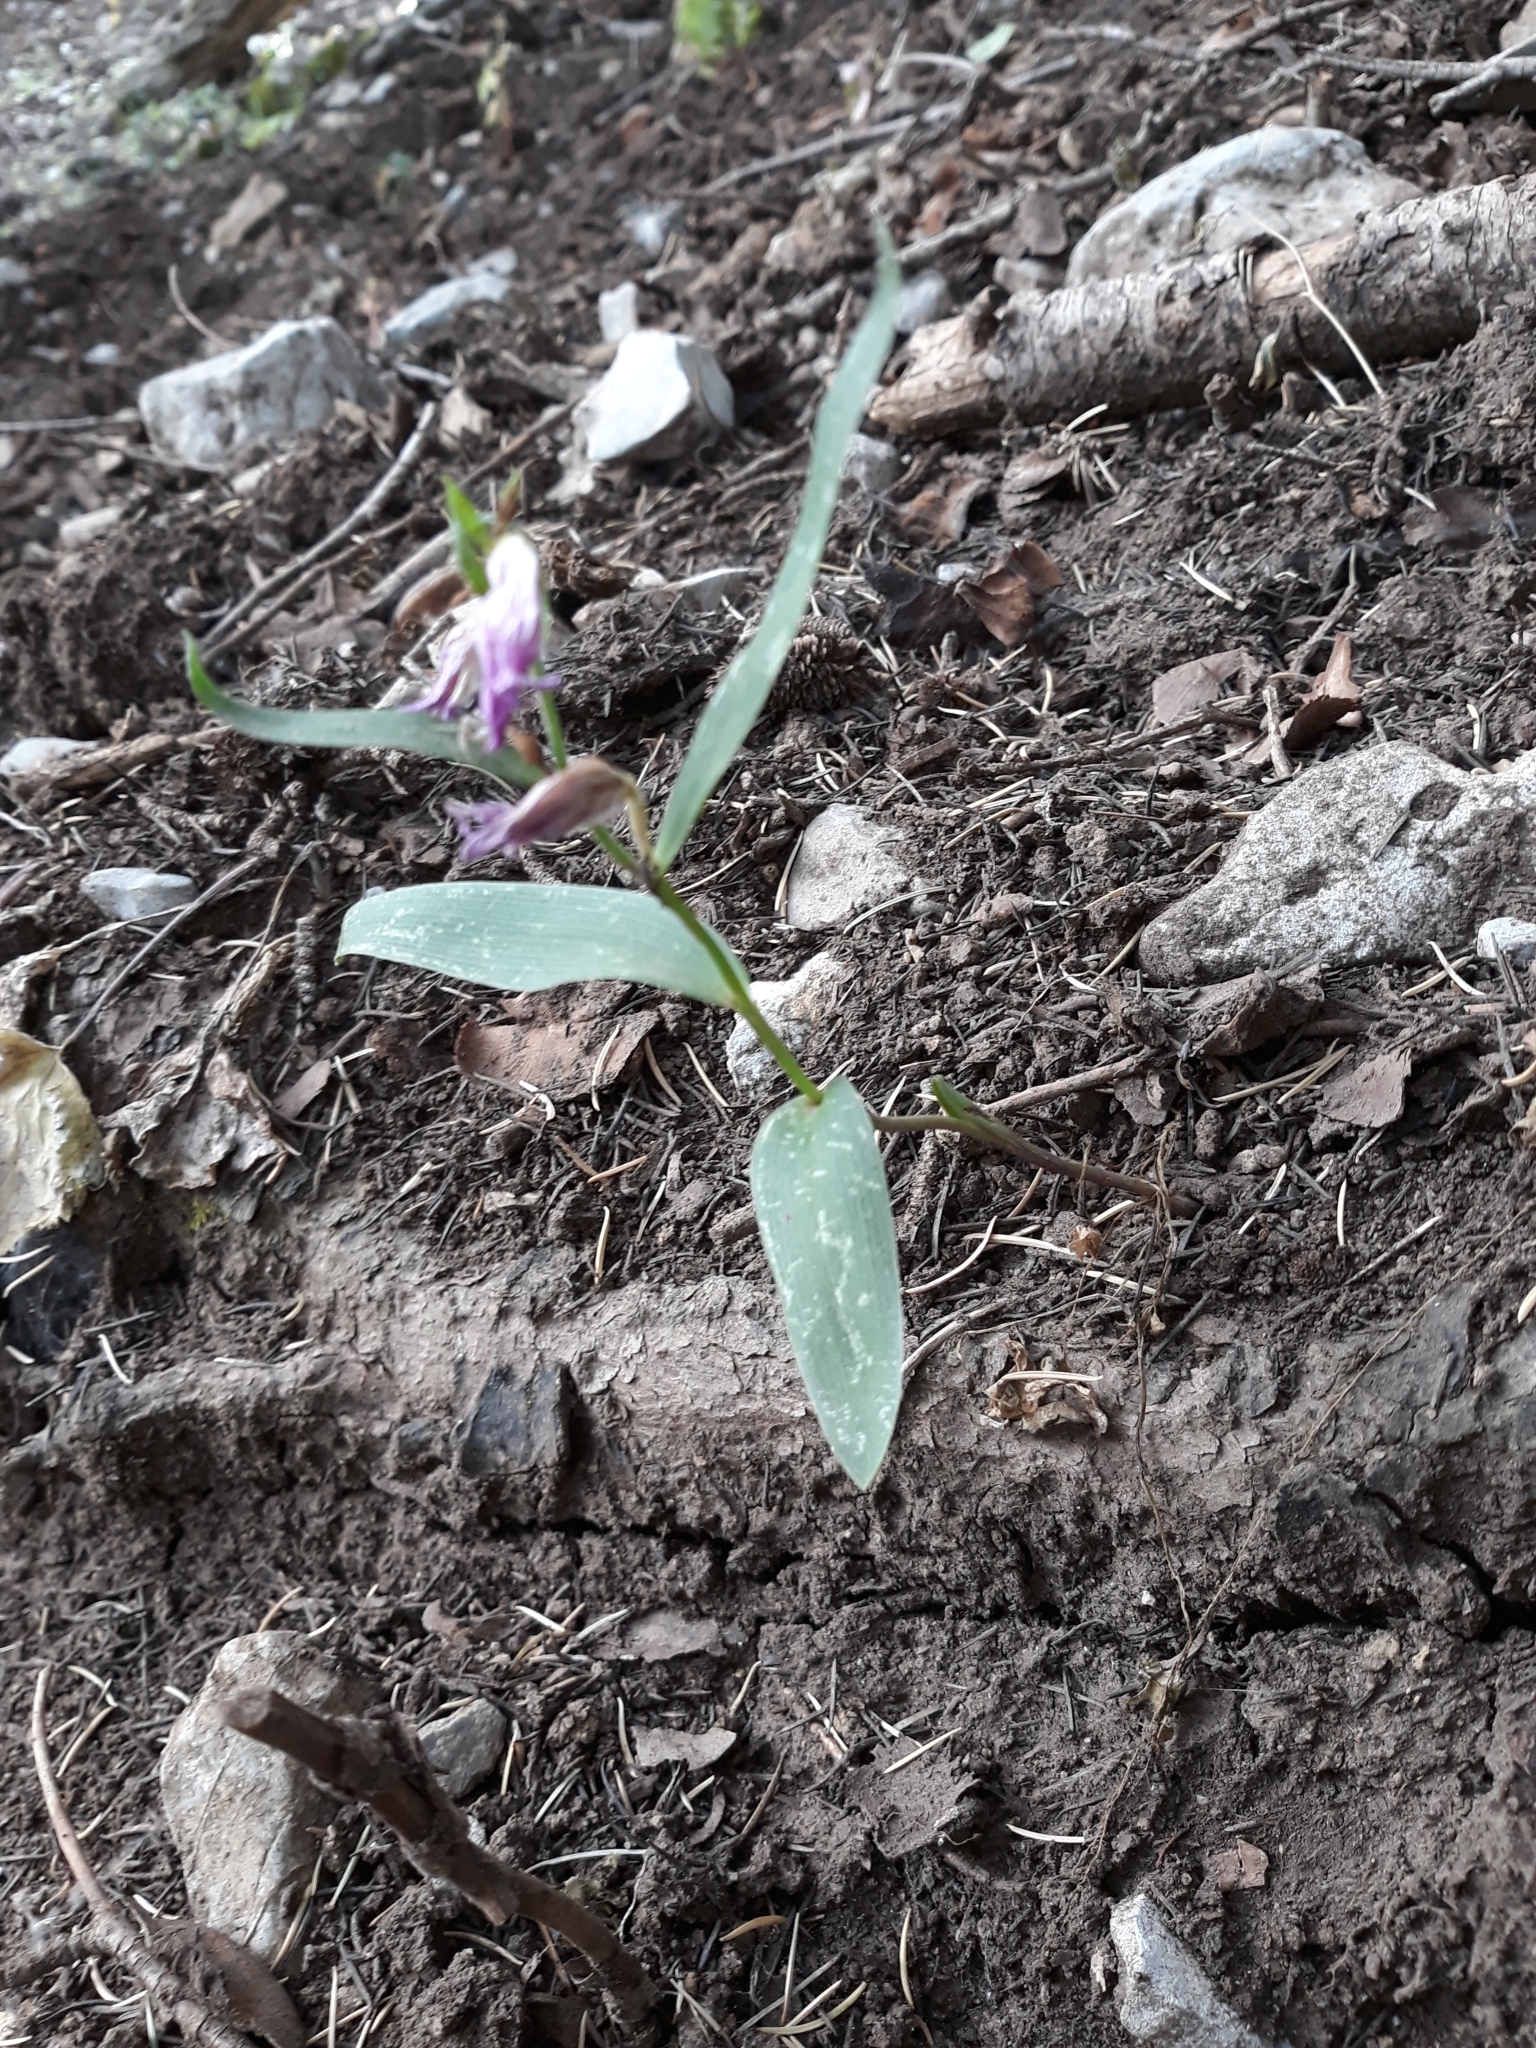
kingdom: Plantae
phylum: Tracheophyta
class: Liliopsida
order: Asparagales
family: Orchidaceae
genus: Cephalanthera
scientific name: Cephalanthera rubra
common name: Red helleborine
